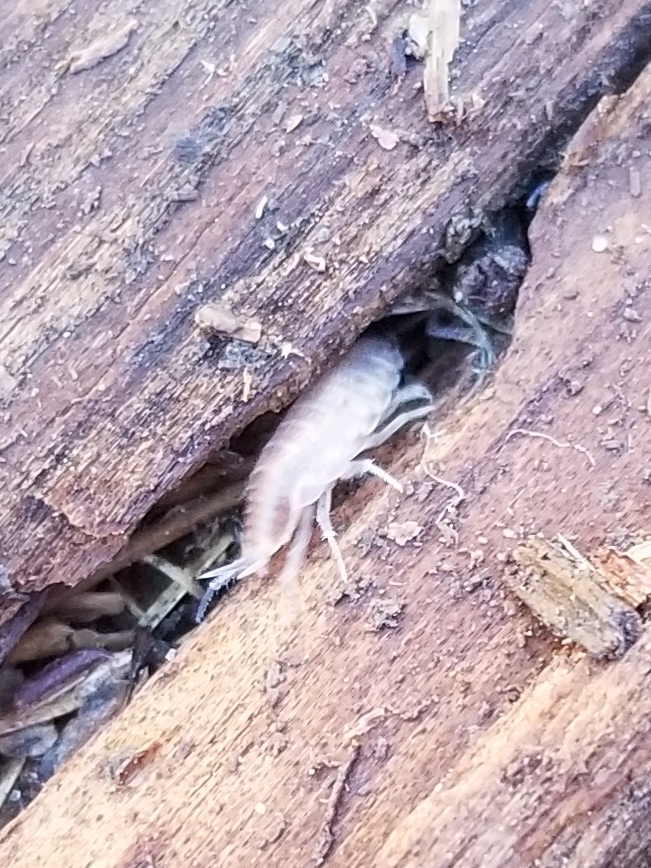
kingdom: Animalia
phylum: Arthropoda
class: Malacostraca
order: Isopoda
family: Halophilosciidae
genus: Littorophiloscia
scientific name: Littorophiloscia richardsonae
